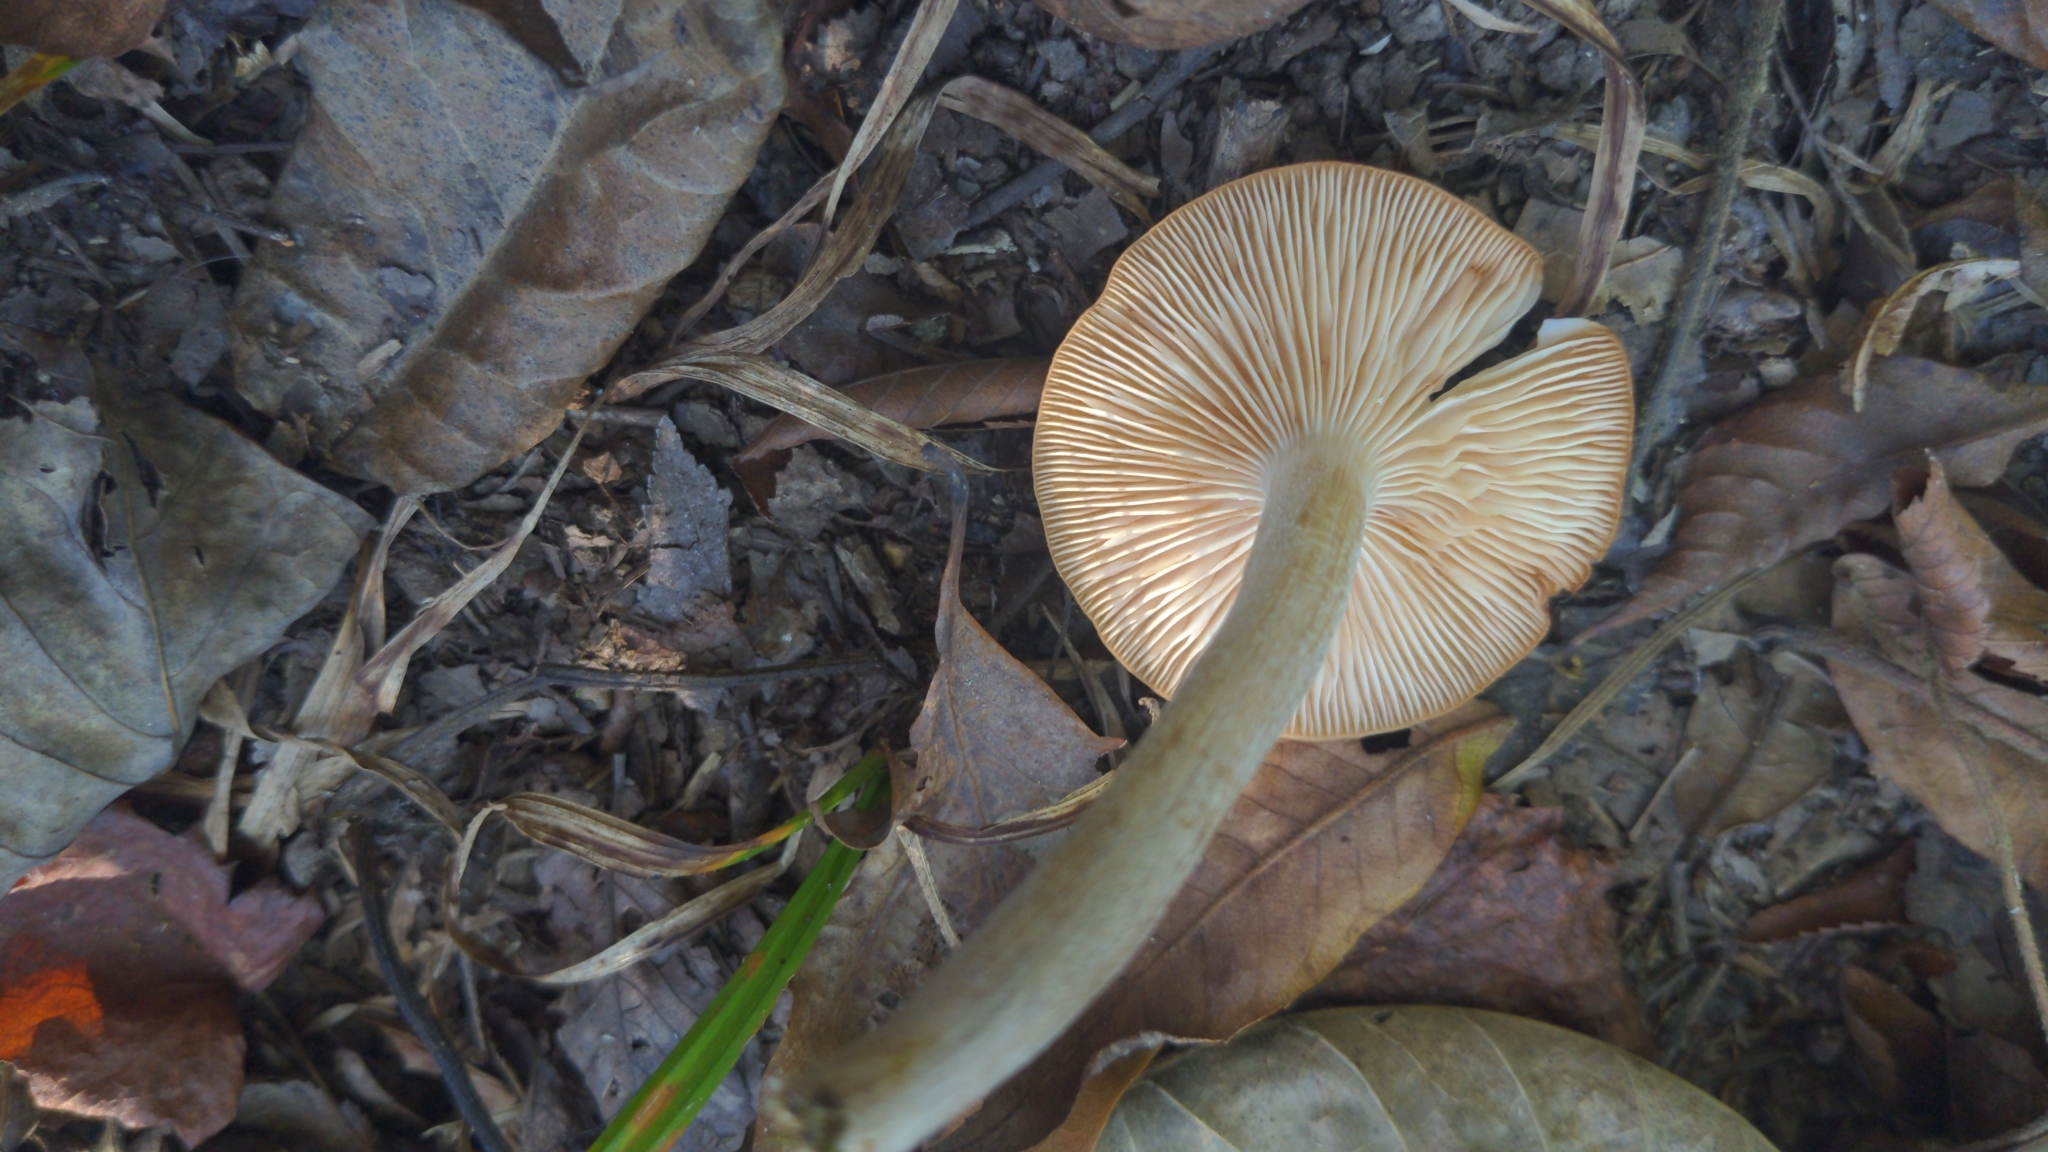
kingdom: Fungi
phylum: Basidiomycota
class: Agaricomycetes
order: Agaricales
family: Physalacriaceae
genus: Desarmillaria
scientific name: Desarmillaria caespitosa
